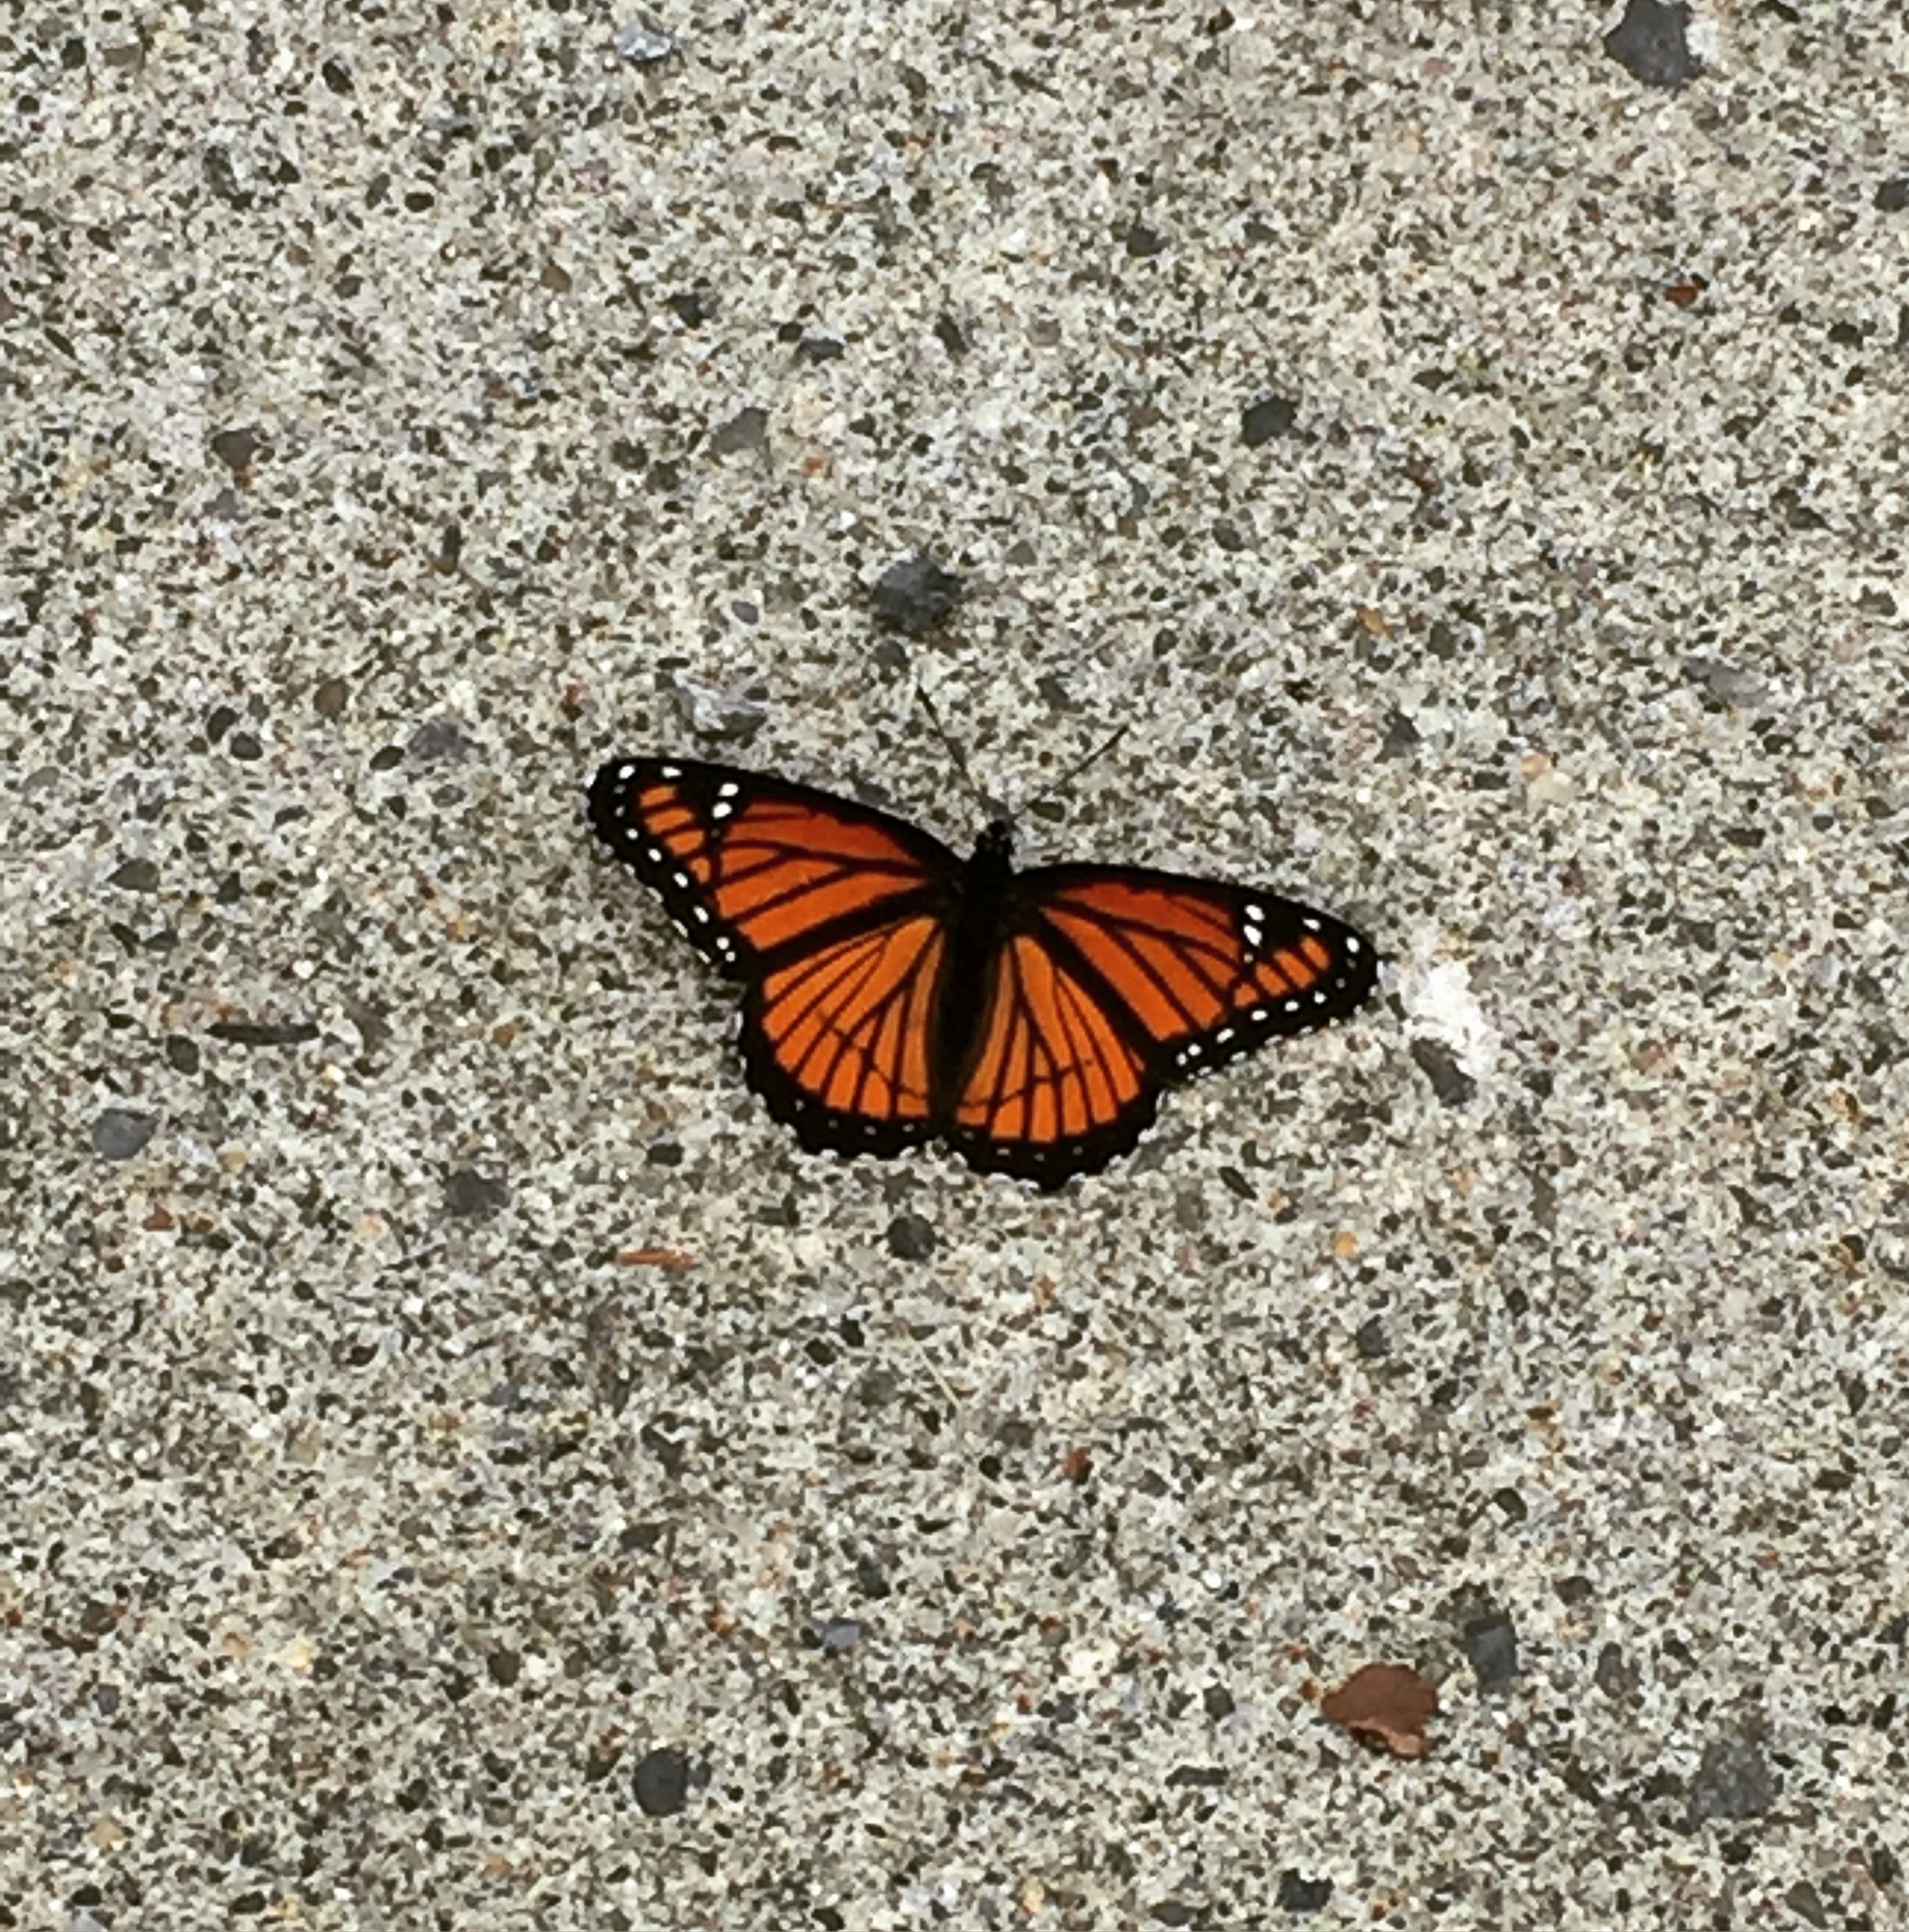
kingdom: Animalia
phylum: Arthropoda
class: Insecta
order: Lepidoptera
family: Nymphalidae
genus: Limenitis
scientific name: Limenitis archippus
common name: Viceroy
